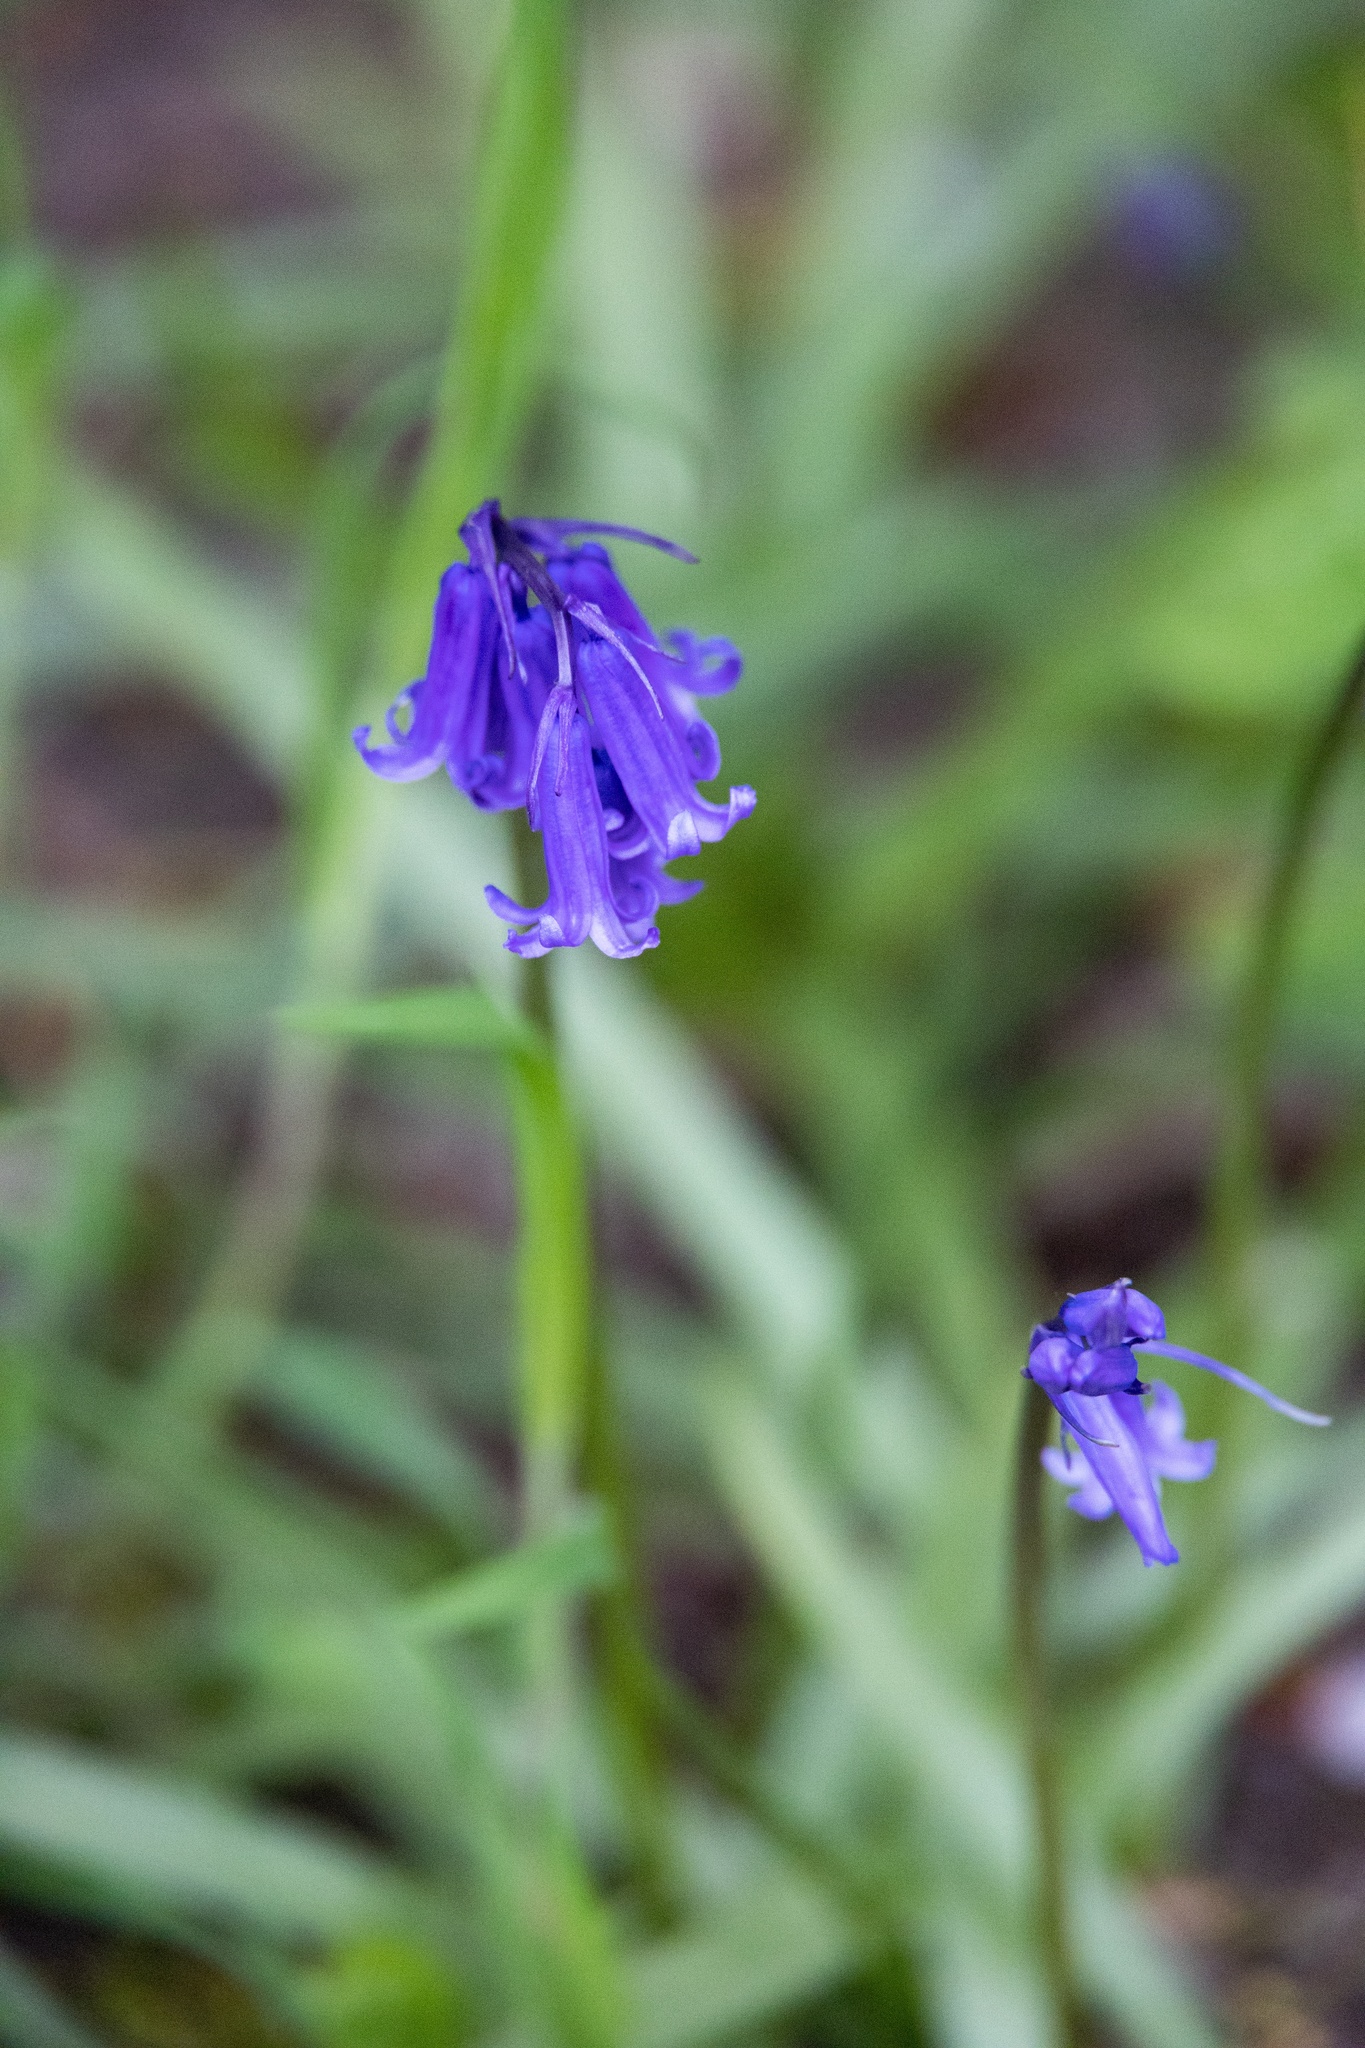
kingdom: Plantae
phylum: Tracheophyta
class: Liliopsida
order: Asparagales
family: Asparagaceae
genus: Hyacinthoides
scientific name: Hyacinthoides non-scripta
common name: Bluebell
